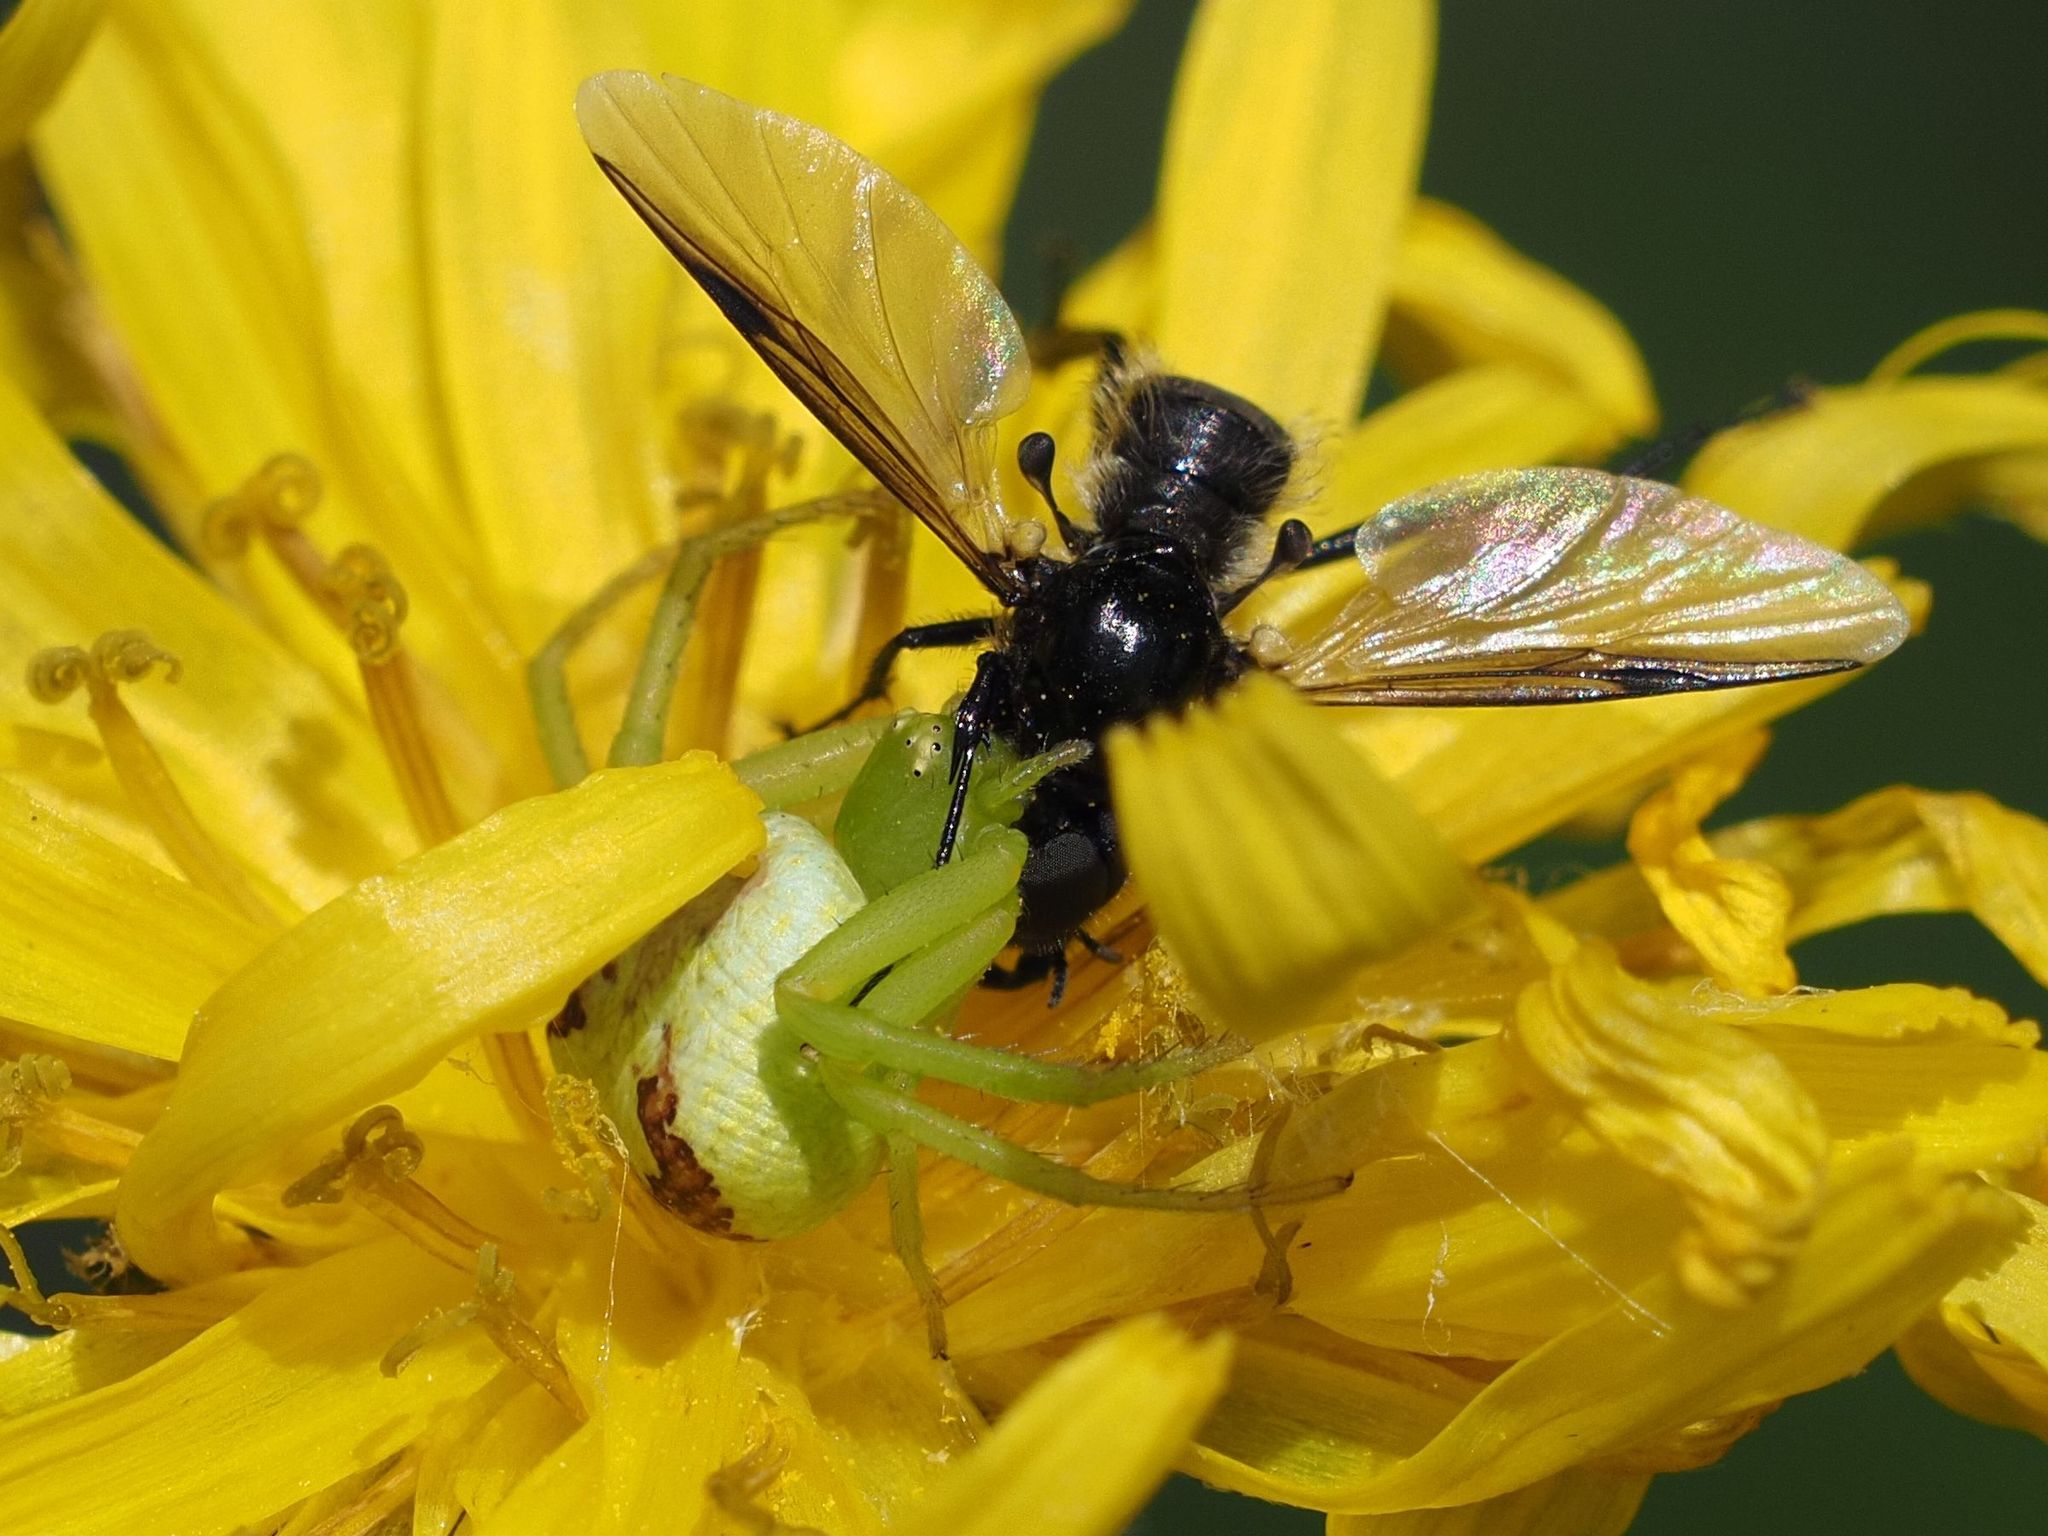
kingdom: Animalia
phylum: Arthropoda
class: Arachnida
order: Araneae
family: Thomisidae
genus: Ebrechtella
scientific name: Ebrechtella tricuspidata
